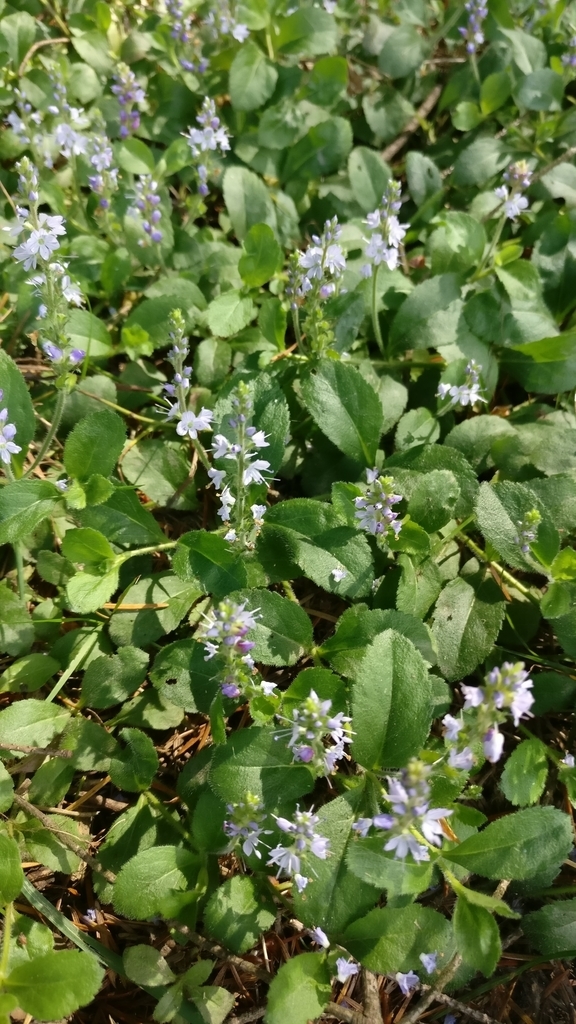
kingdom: Plantae
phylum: Tracheophyta
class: Magnoliopsida
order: Lamiales
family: Plantaginaceae
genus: Veronica
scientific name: Veronica officinalis
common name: Common speedwell
